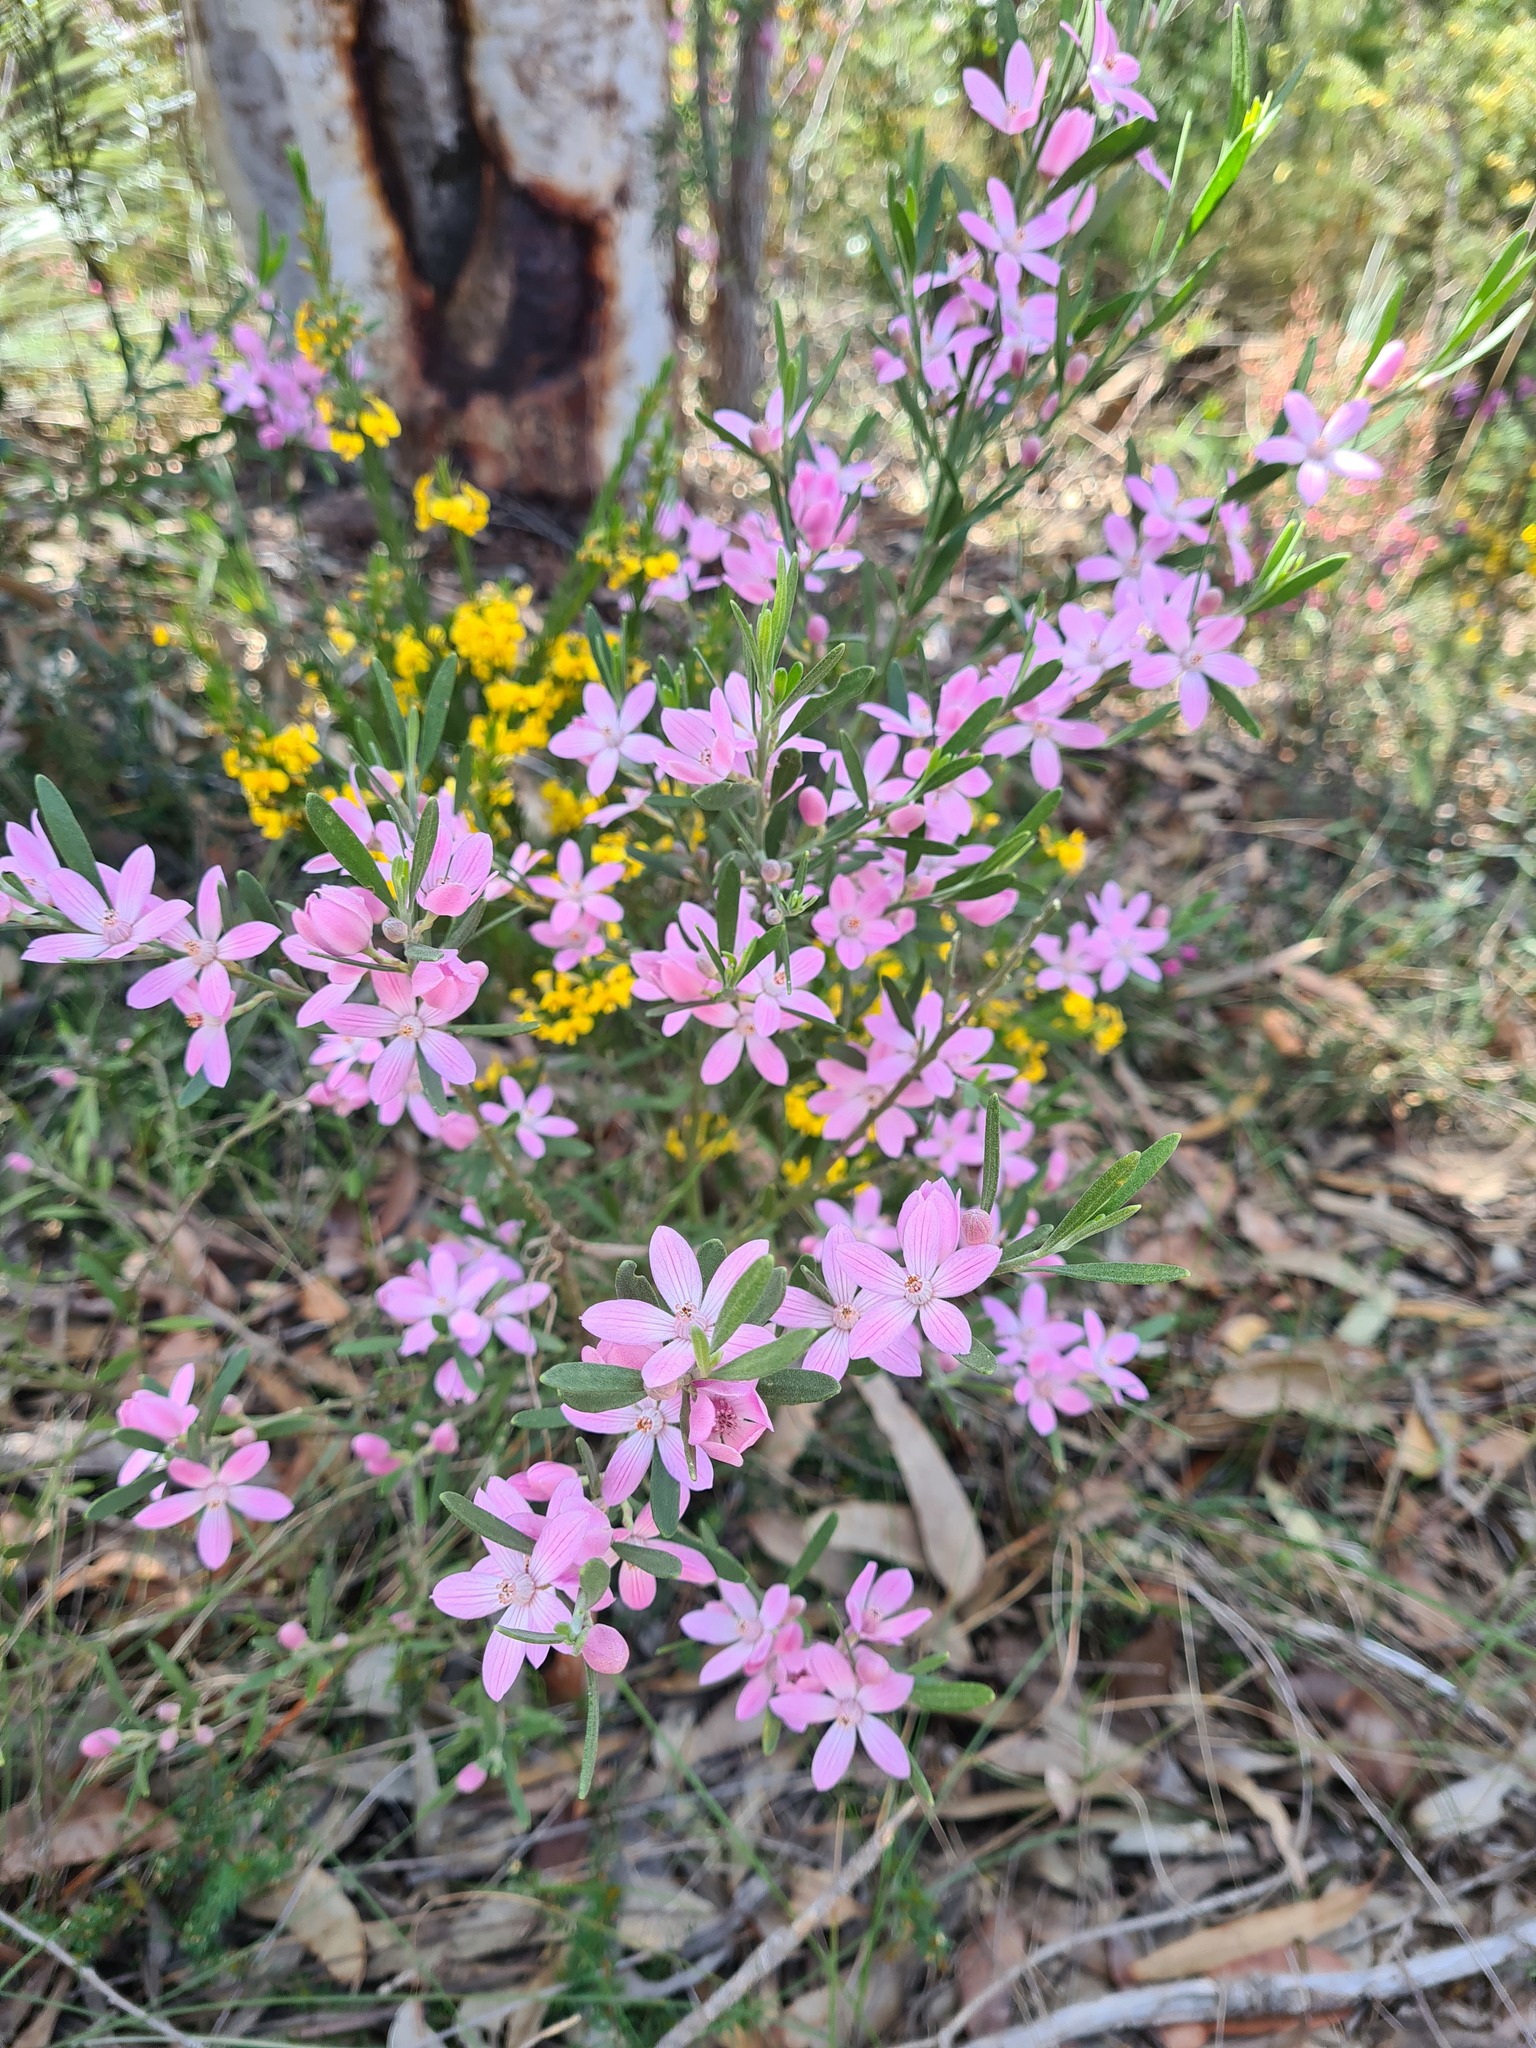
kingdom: Plantae
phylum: Tracheophyta
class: Magnoliopsida
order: Sapindales
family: Rutaceae
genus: Eriostemon
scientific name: Eriostemon australasius
